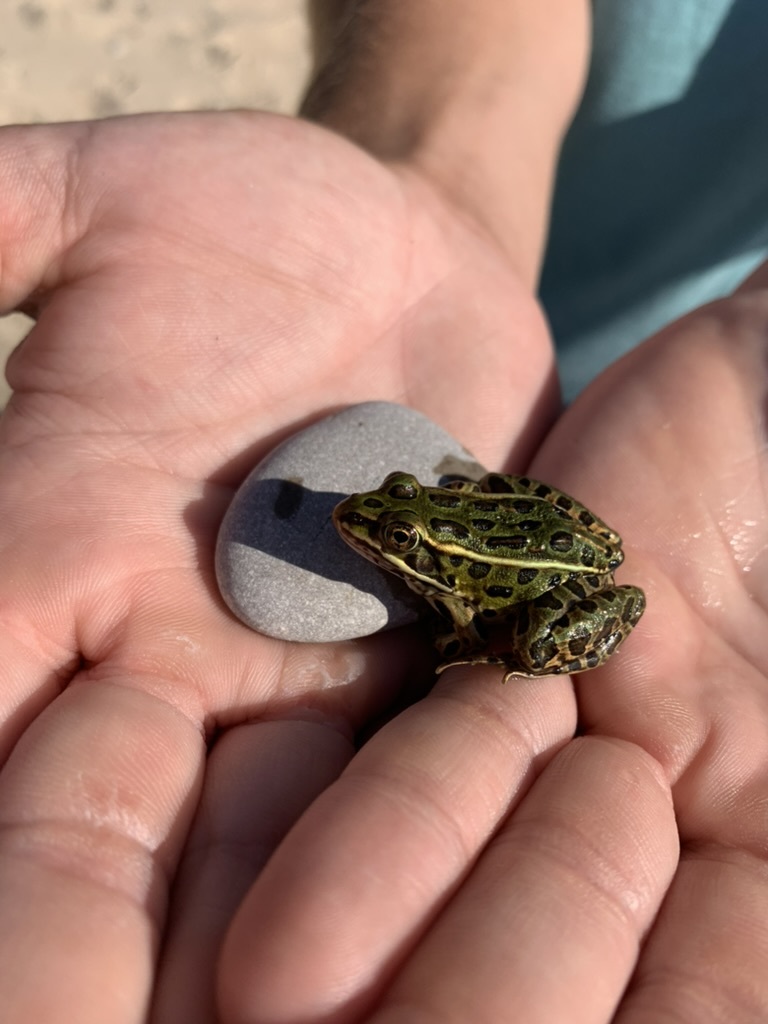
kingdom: Animalia
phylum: Chordata
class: Amphibia
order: Anura
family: Ranidae
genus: Lithobates
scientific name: Lithobates pipiens
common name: Northern leopard frog
